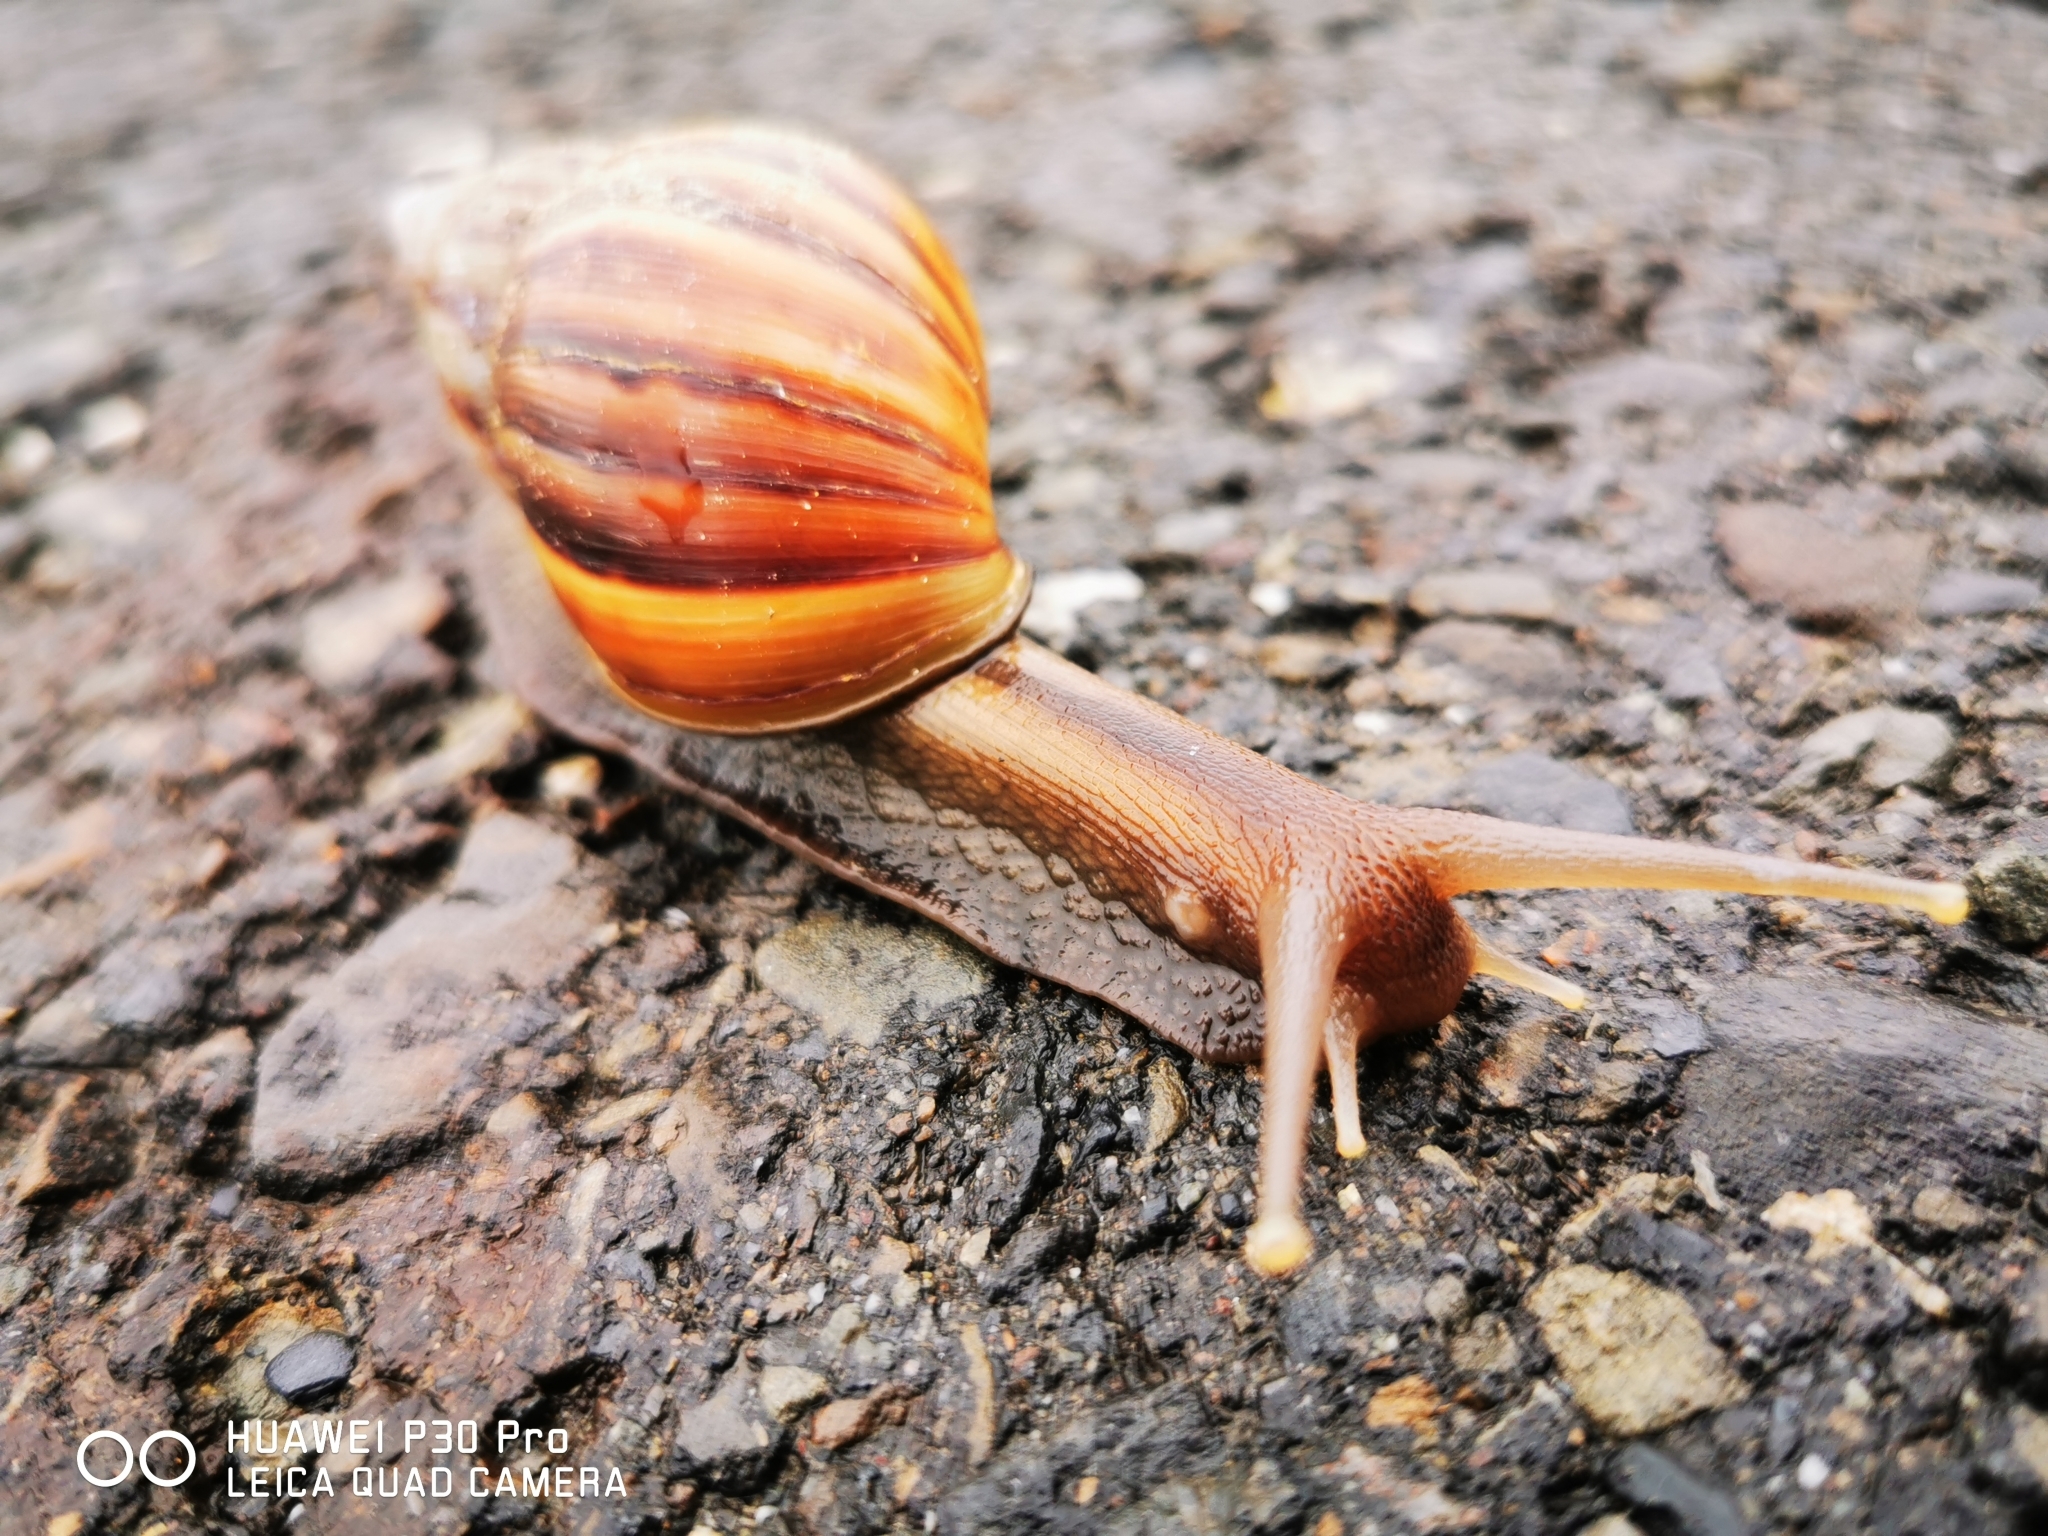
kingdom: Animalia
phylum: Mollusca
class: Gastropoda
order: Stylommatophora
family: Achatinidae
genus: Lissachatina
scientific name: Lissachatina fulica
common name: Giant african snail
